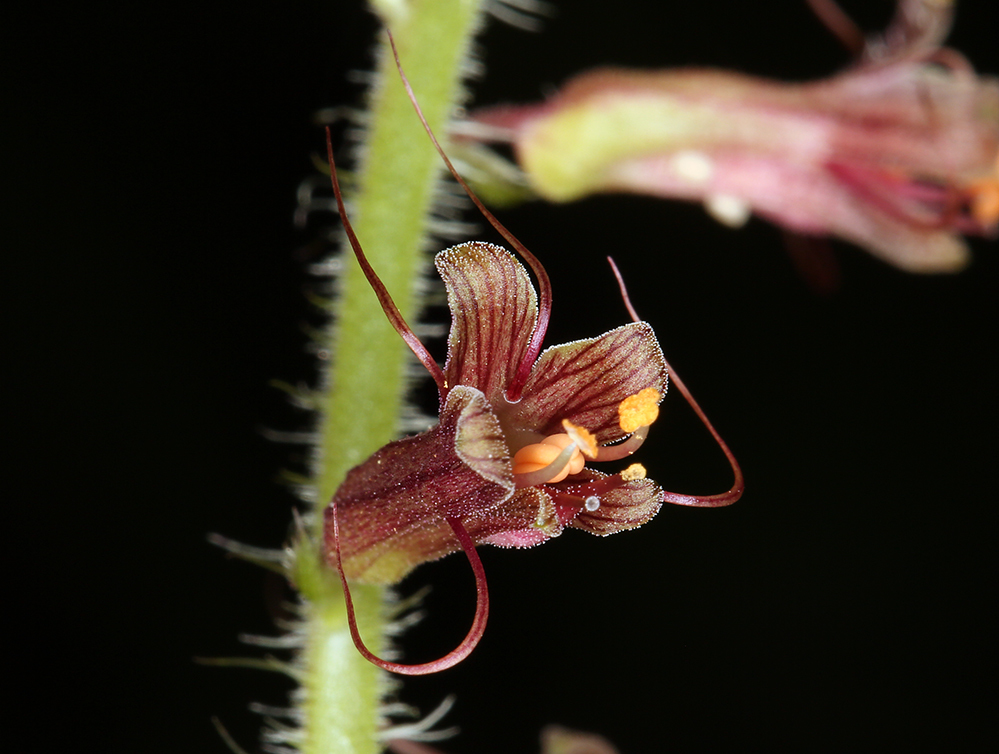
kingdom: Plantae
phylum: Tracheophyta
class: Magnoliopsida
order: Saxifragales
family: Saxifragaceae
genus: Tolmiea
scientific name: Tolmiea diplomenziesii
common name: Youth on age
